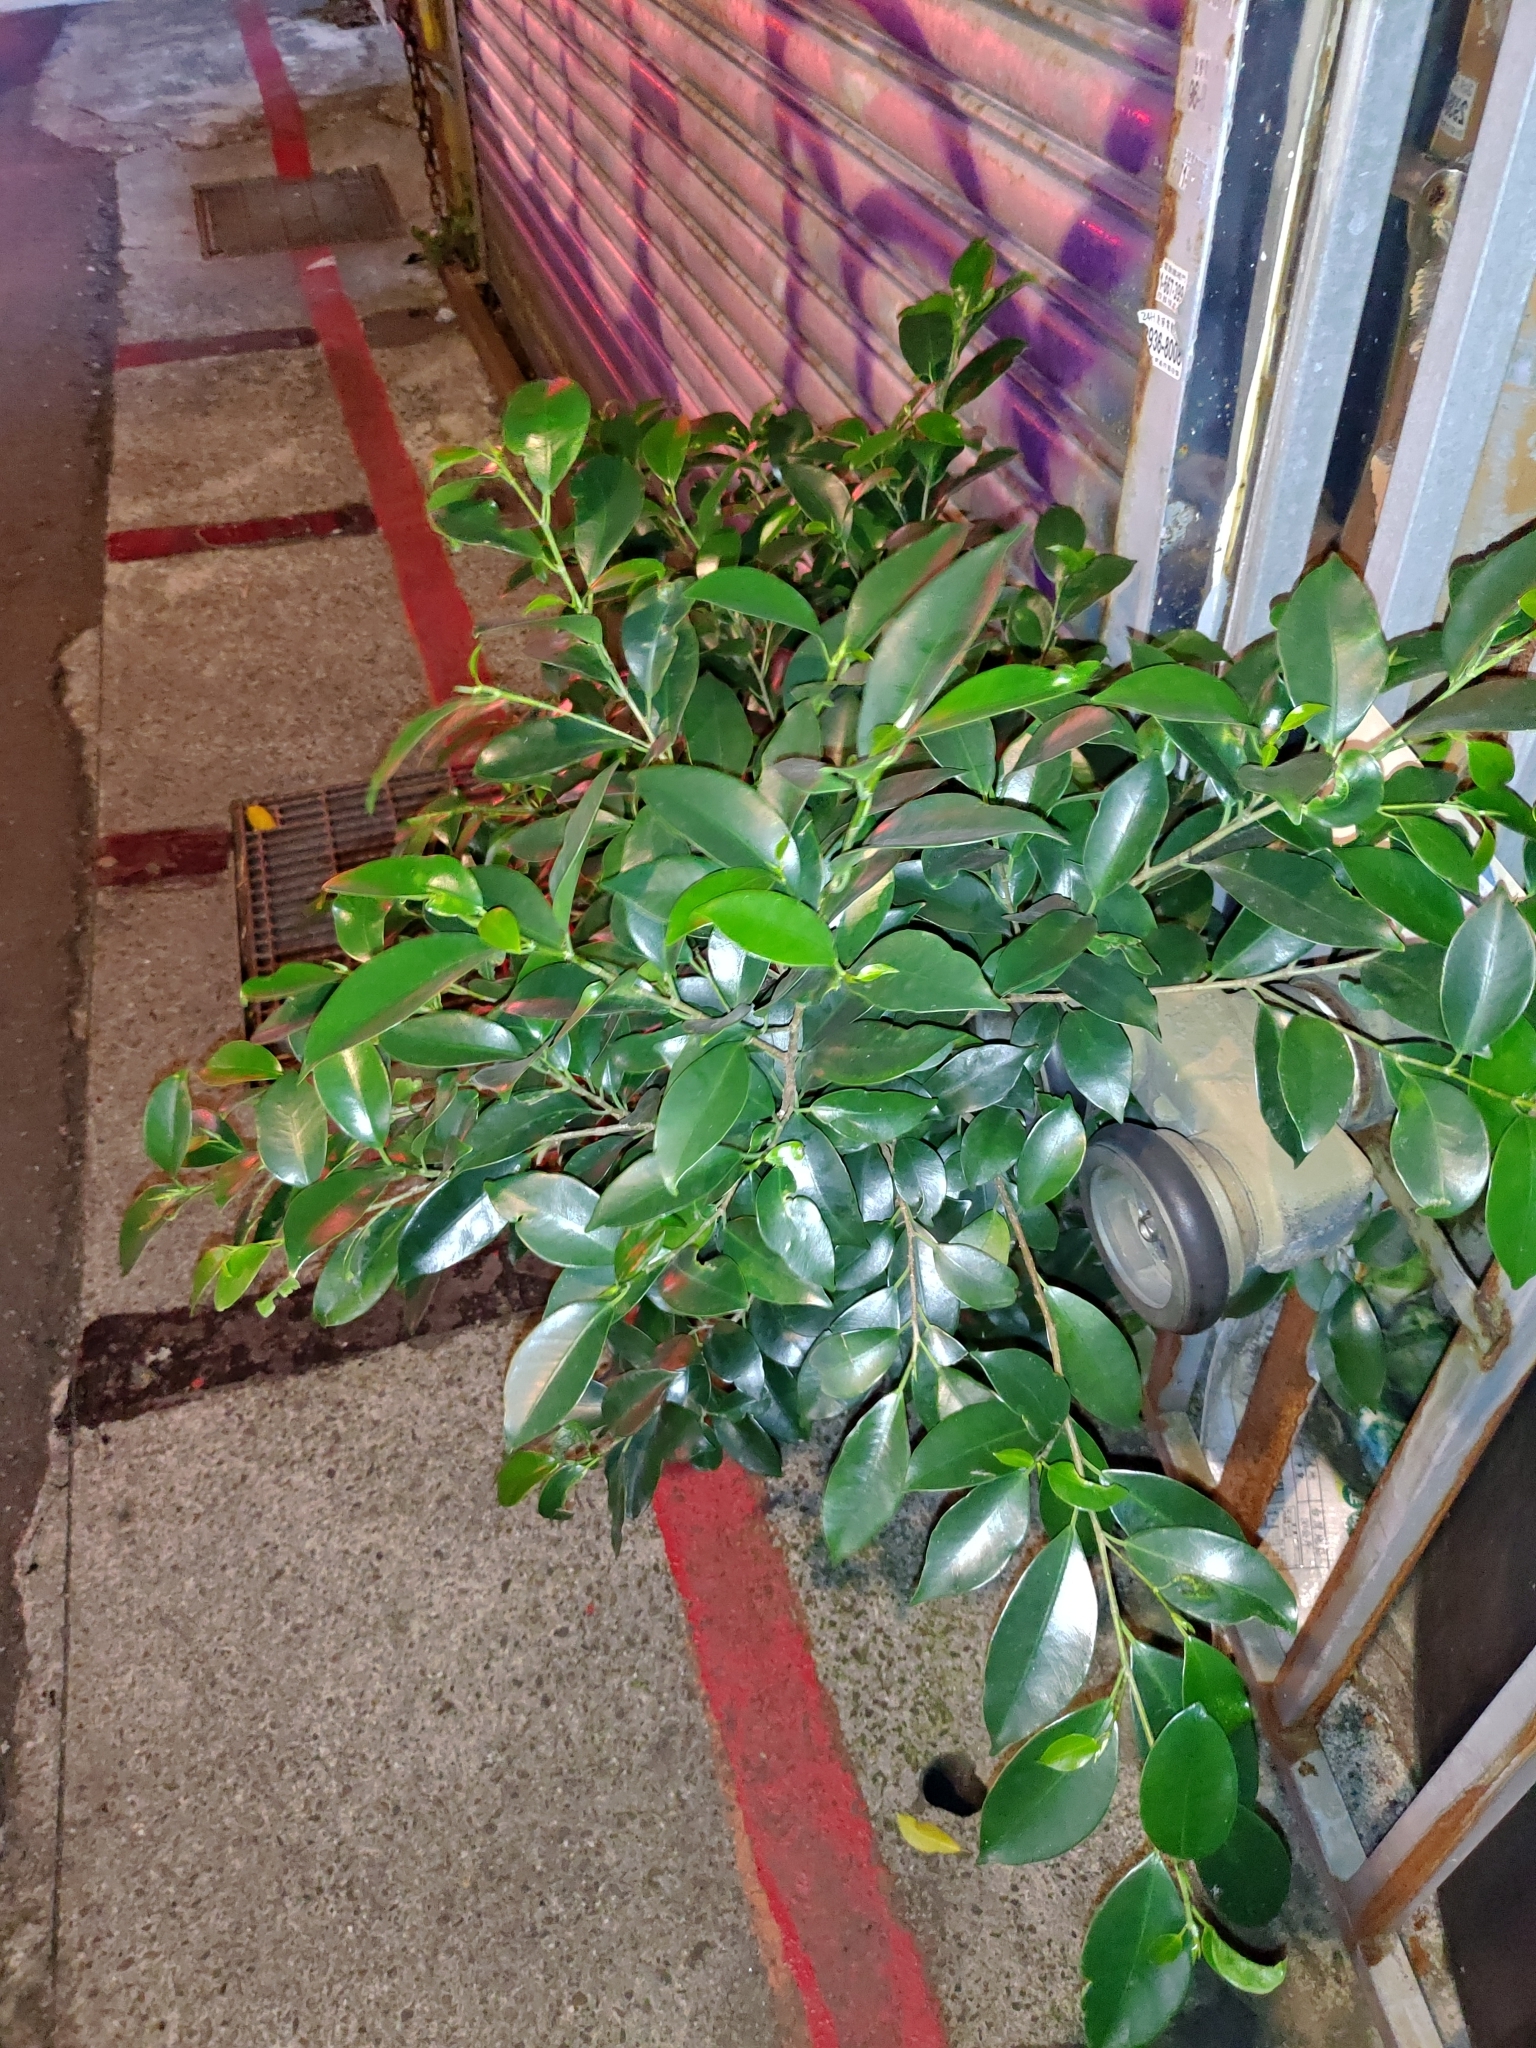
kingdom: Plantae
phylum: Tracheophyta
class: Magnoliopsida
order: Rosales
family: Moraceae
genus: Ficus
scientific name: Ficus microcarpa
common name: Chinese banyan
